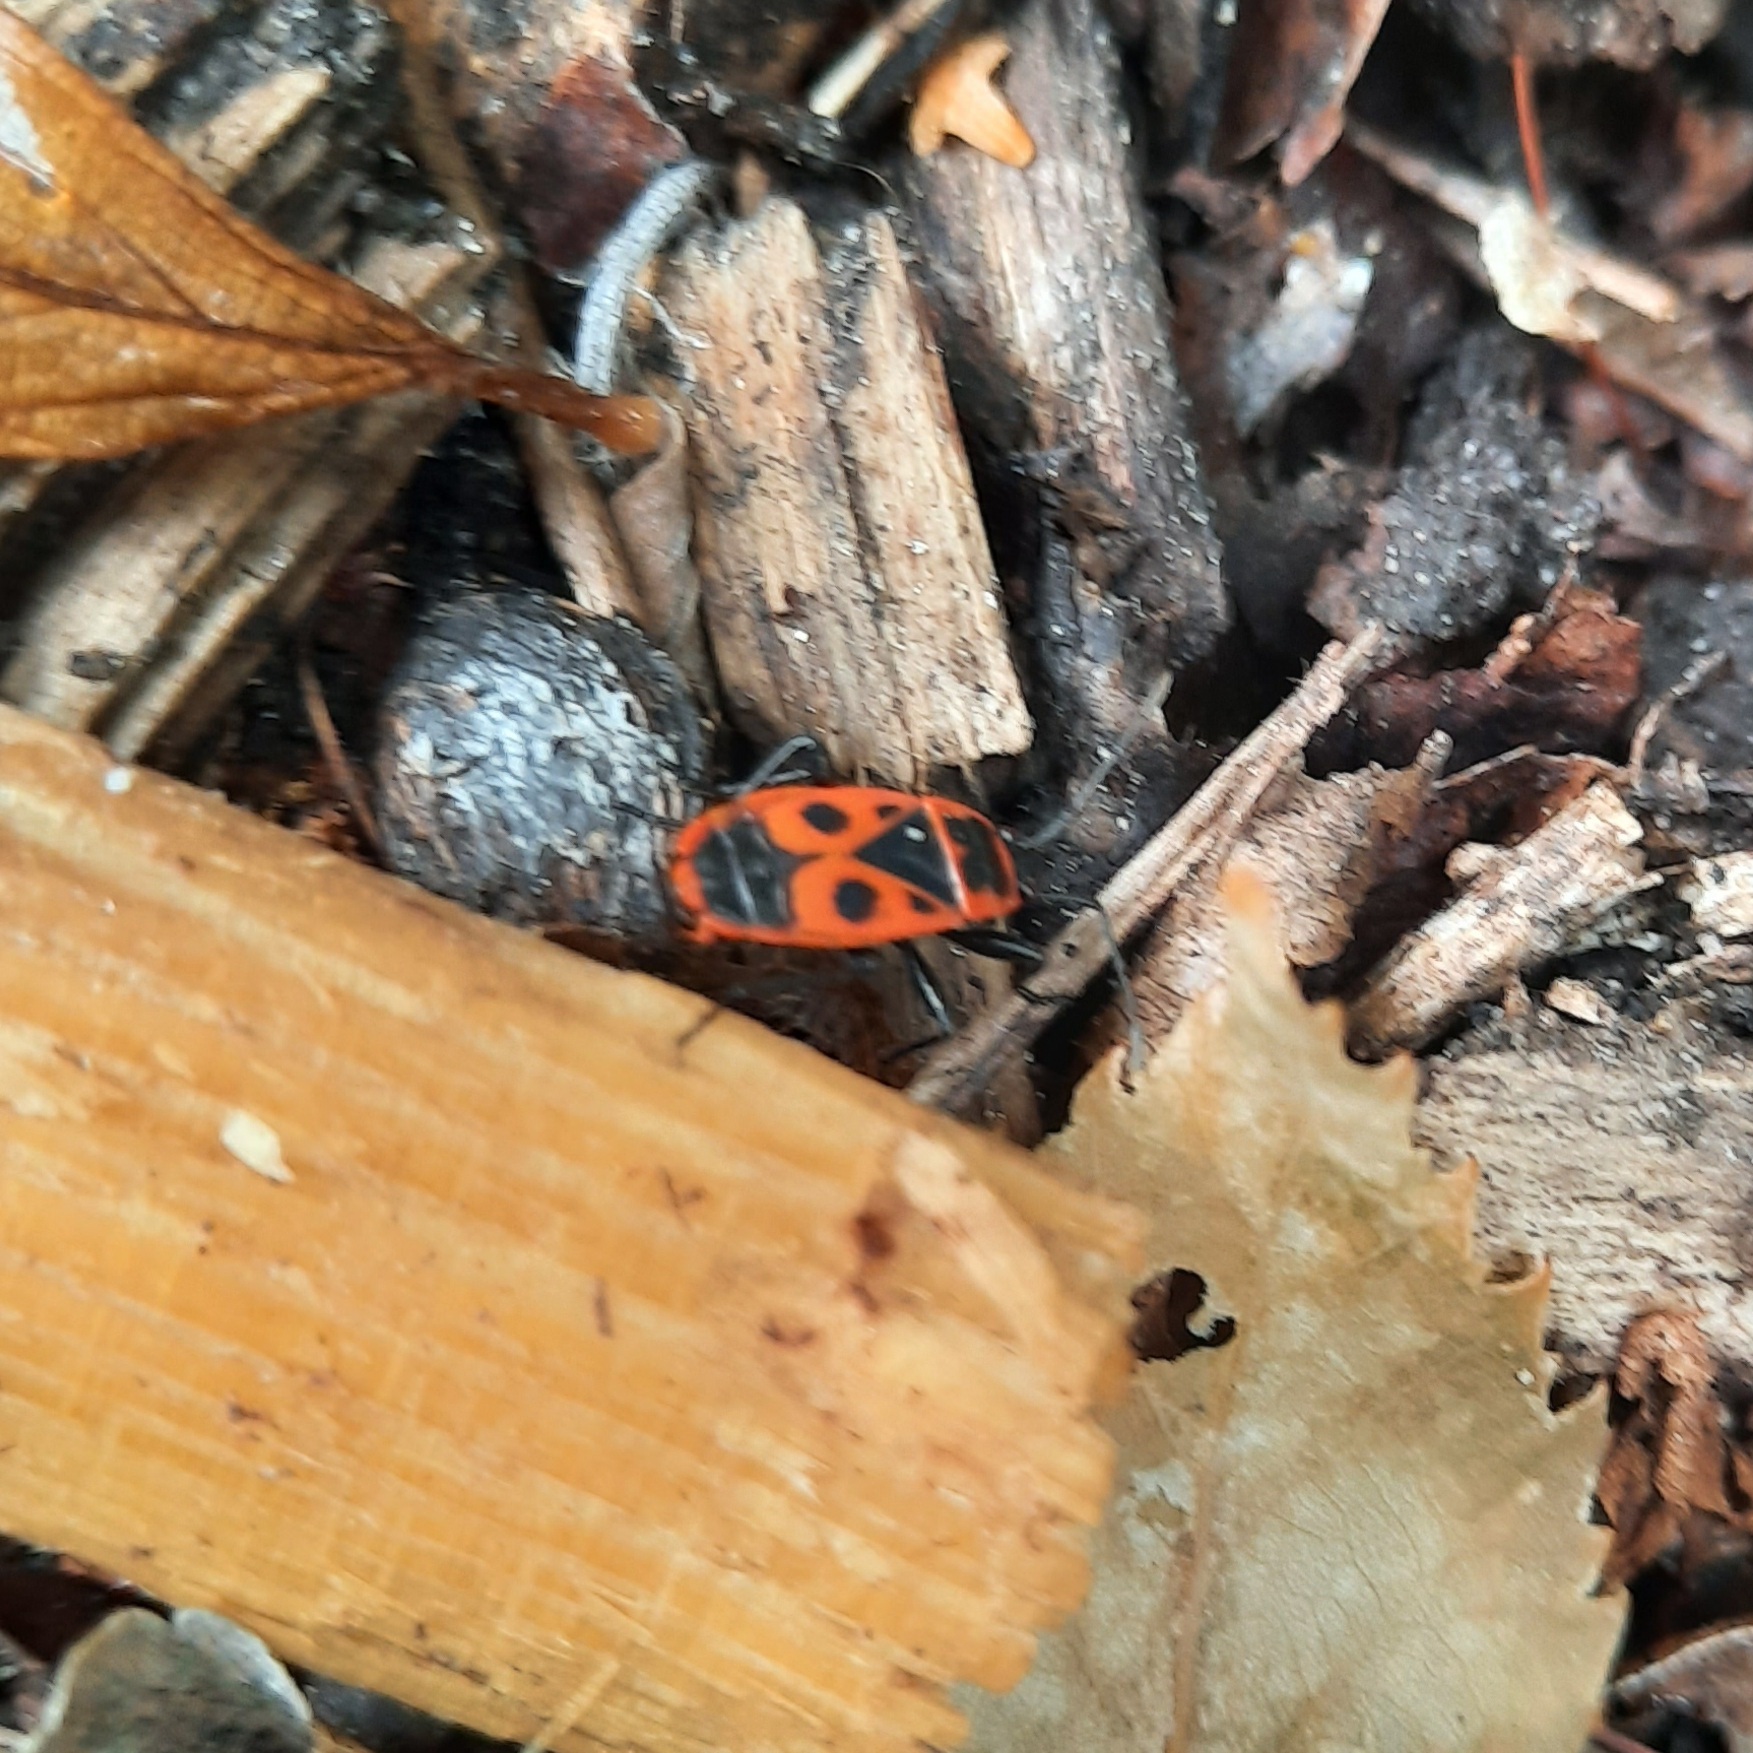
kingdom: Animalia
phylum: Arthropoda
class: Insecta
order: Hemiptera
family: Pyrrhocoridae
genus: Pyrrhocoris
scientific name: Pyrrhocoris apterus
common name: Firebug
